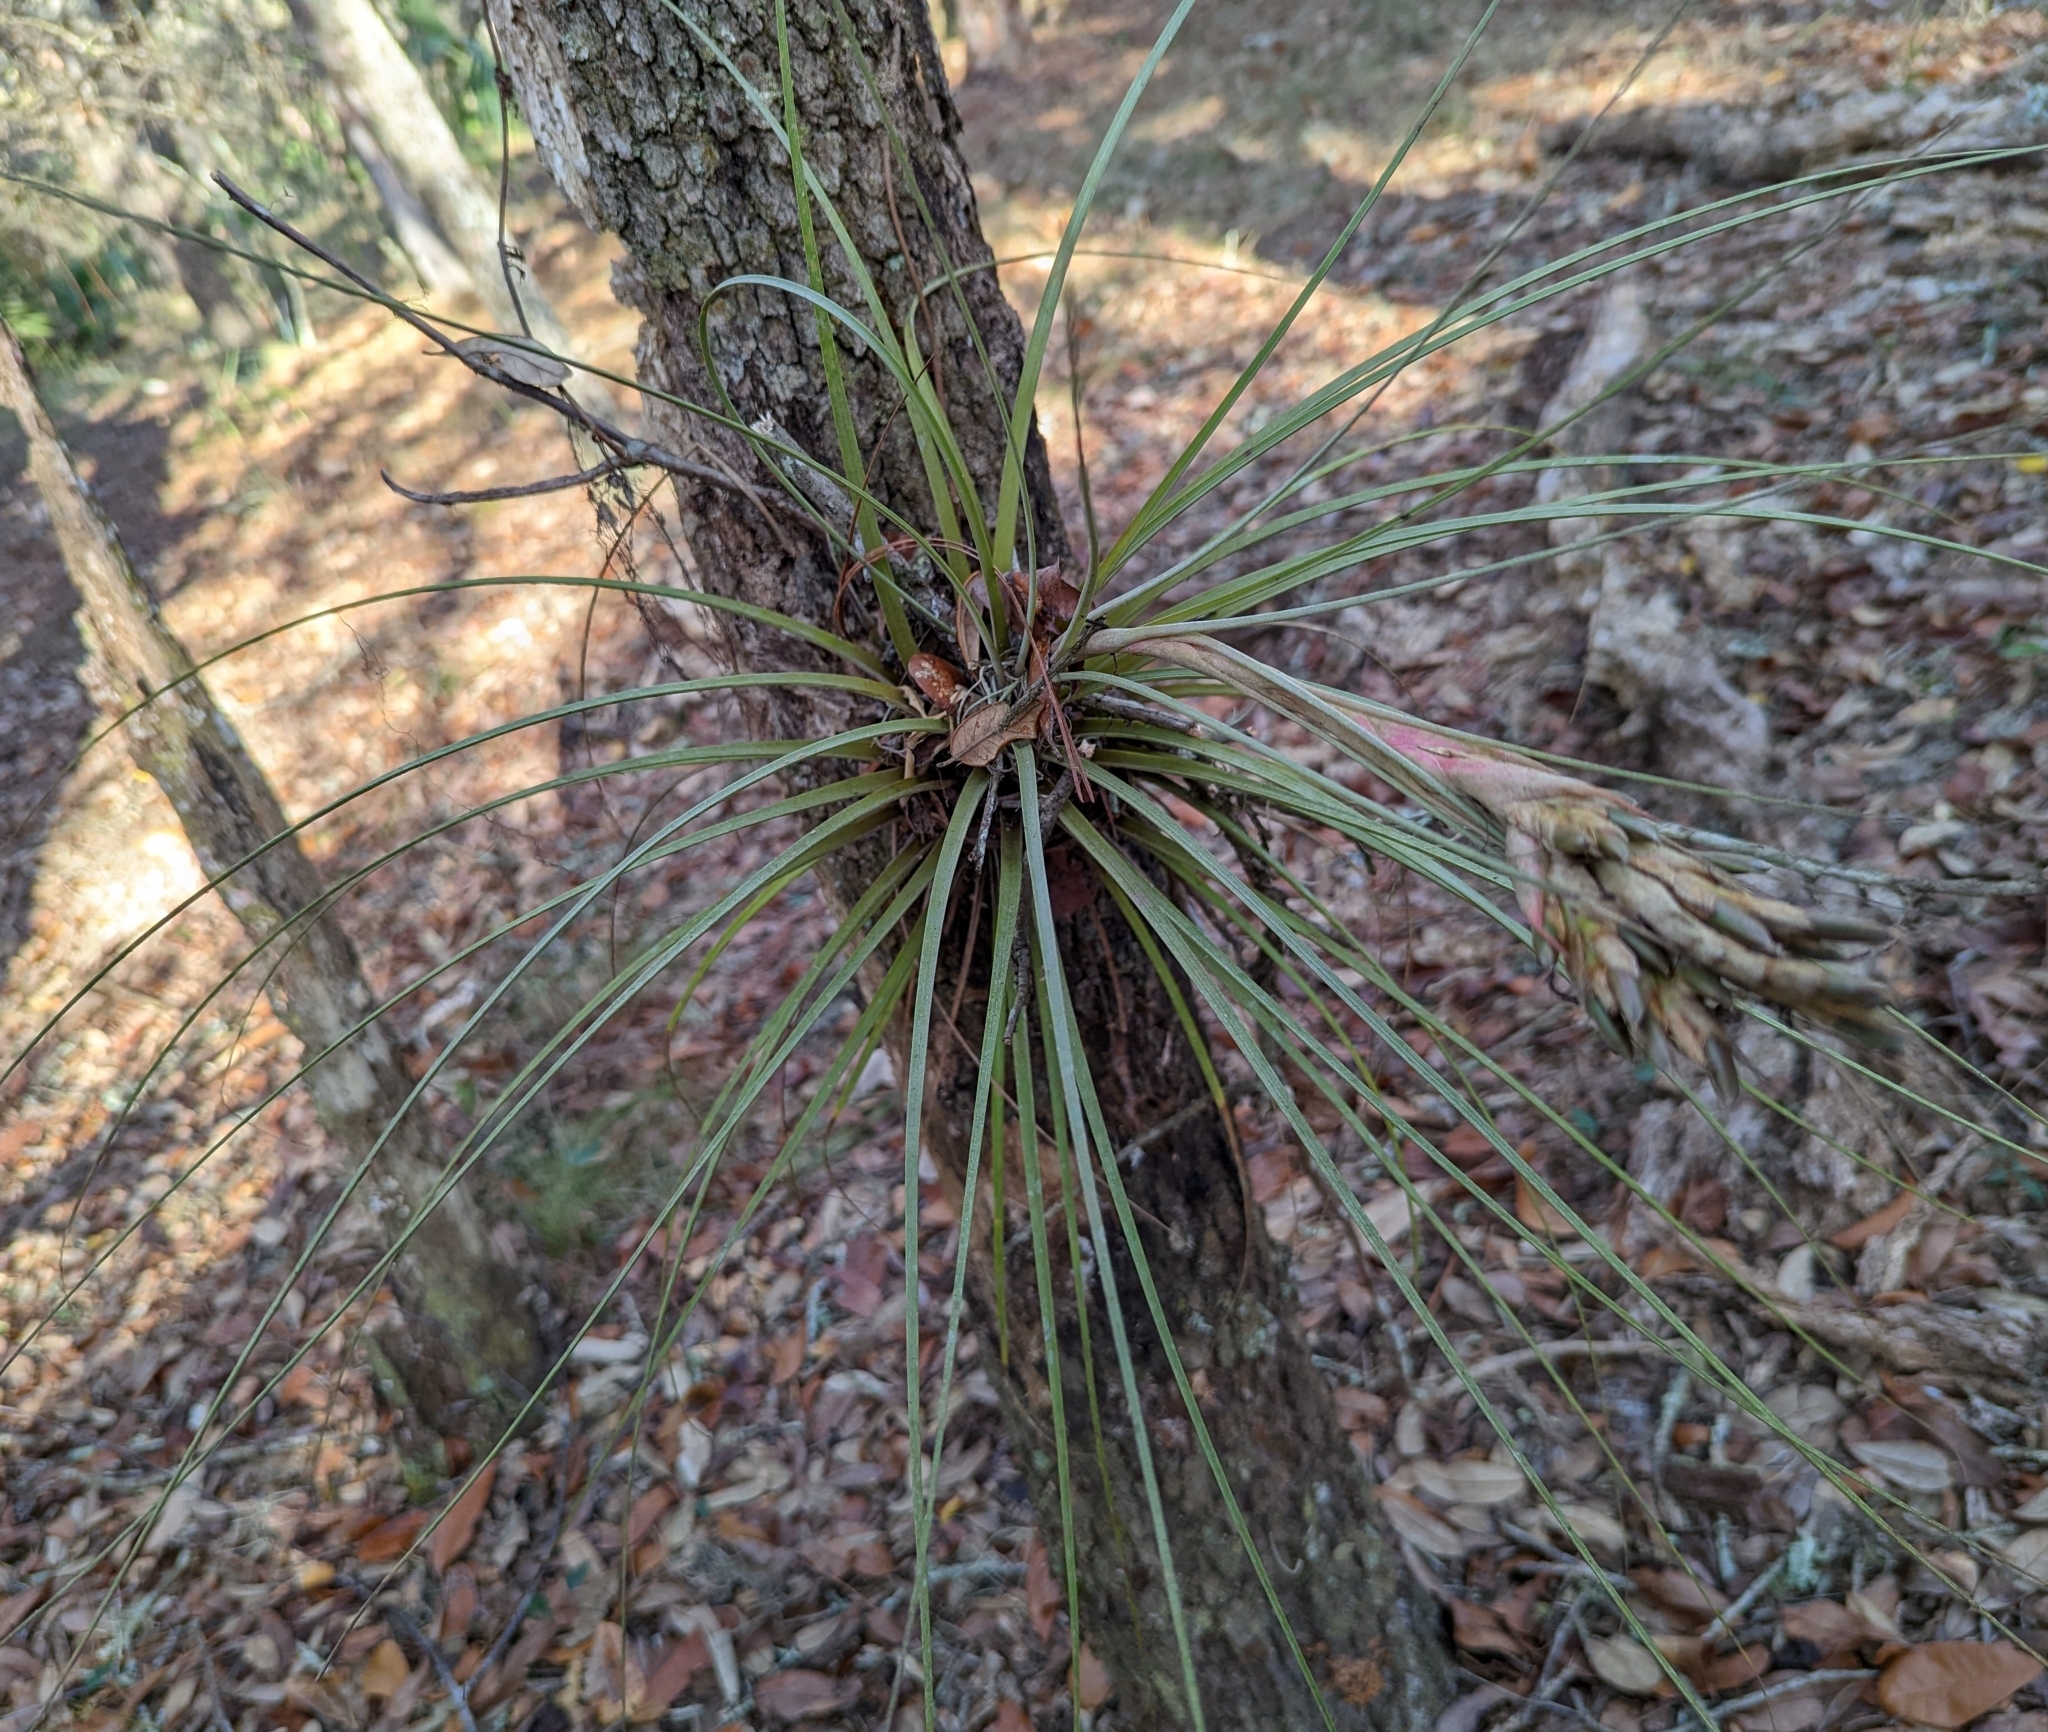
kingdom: Plantae
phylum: Tracheophyta
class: Liliopsida
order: Poales
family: Bromeliaceae
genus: Tillandsia
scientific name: Tillandsia simulata
